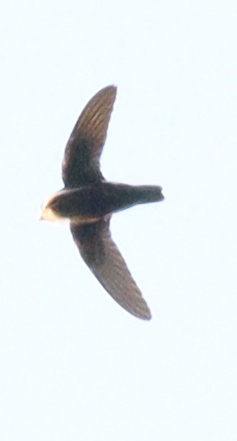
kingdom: Animalia
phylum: Chordata
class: Aves
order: Apodiformes
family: Apodidae
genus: Apus
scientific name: Apus affinis
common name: Little swift
